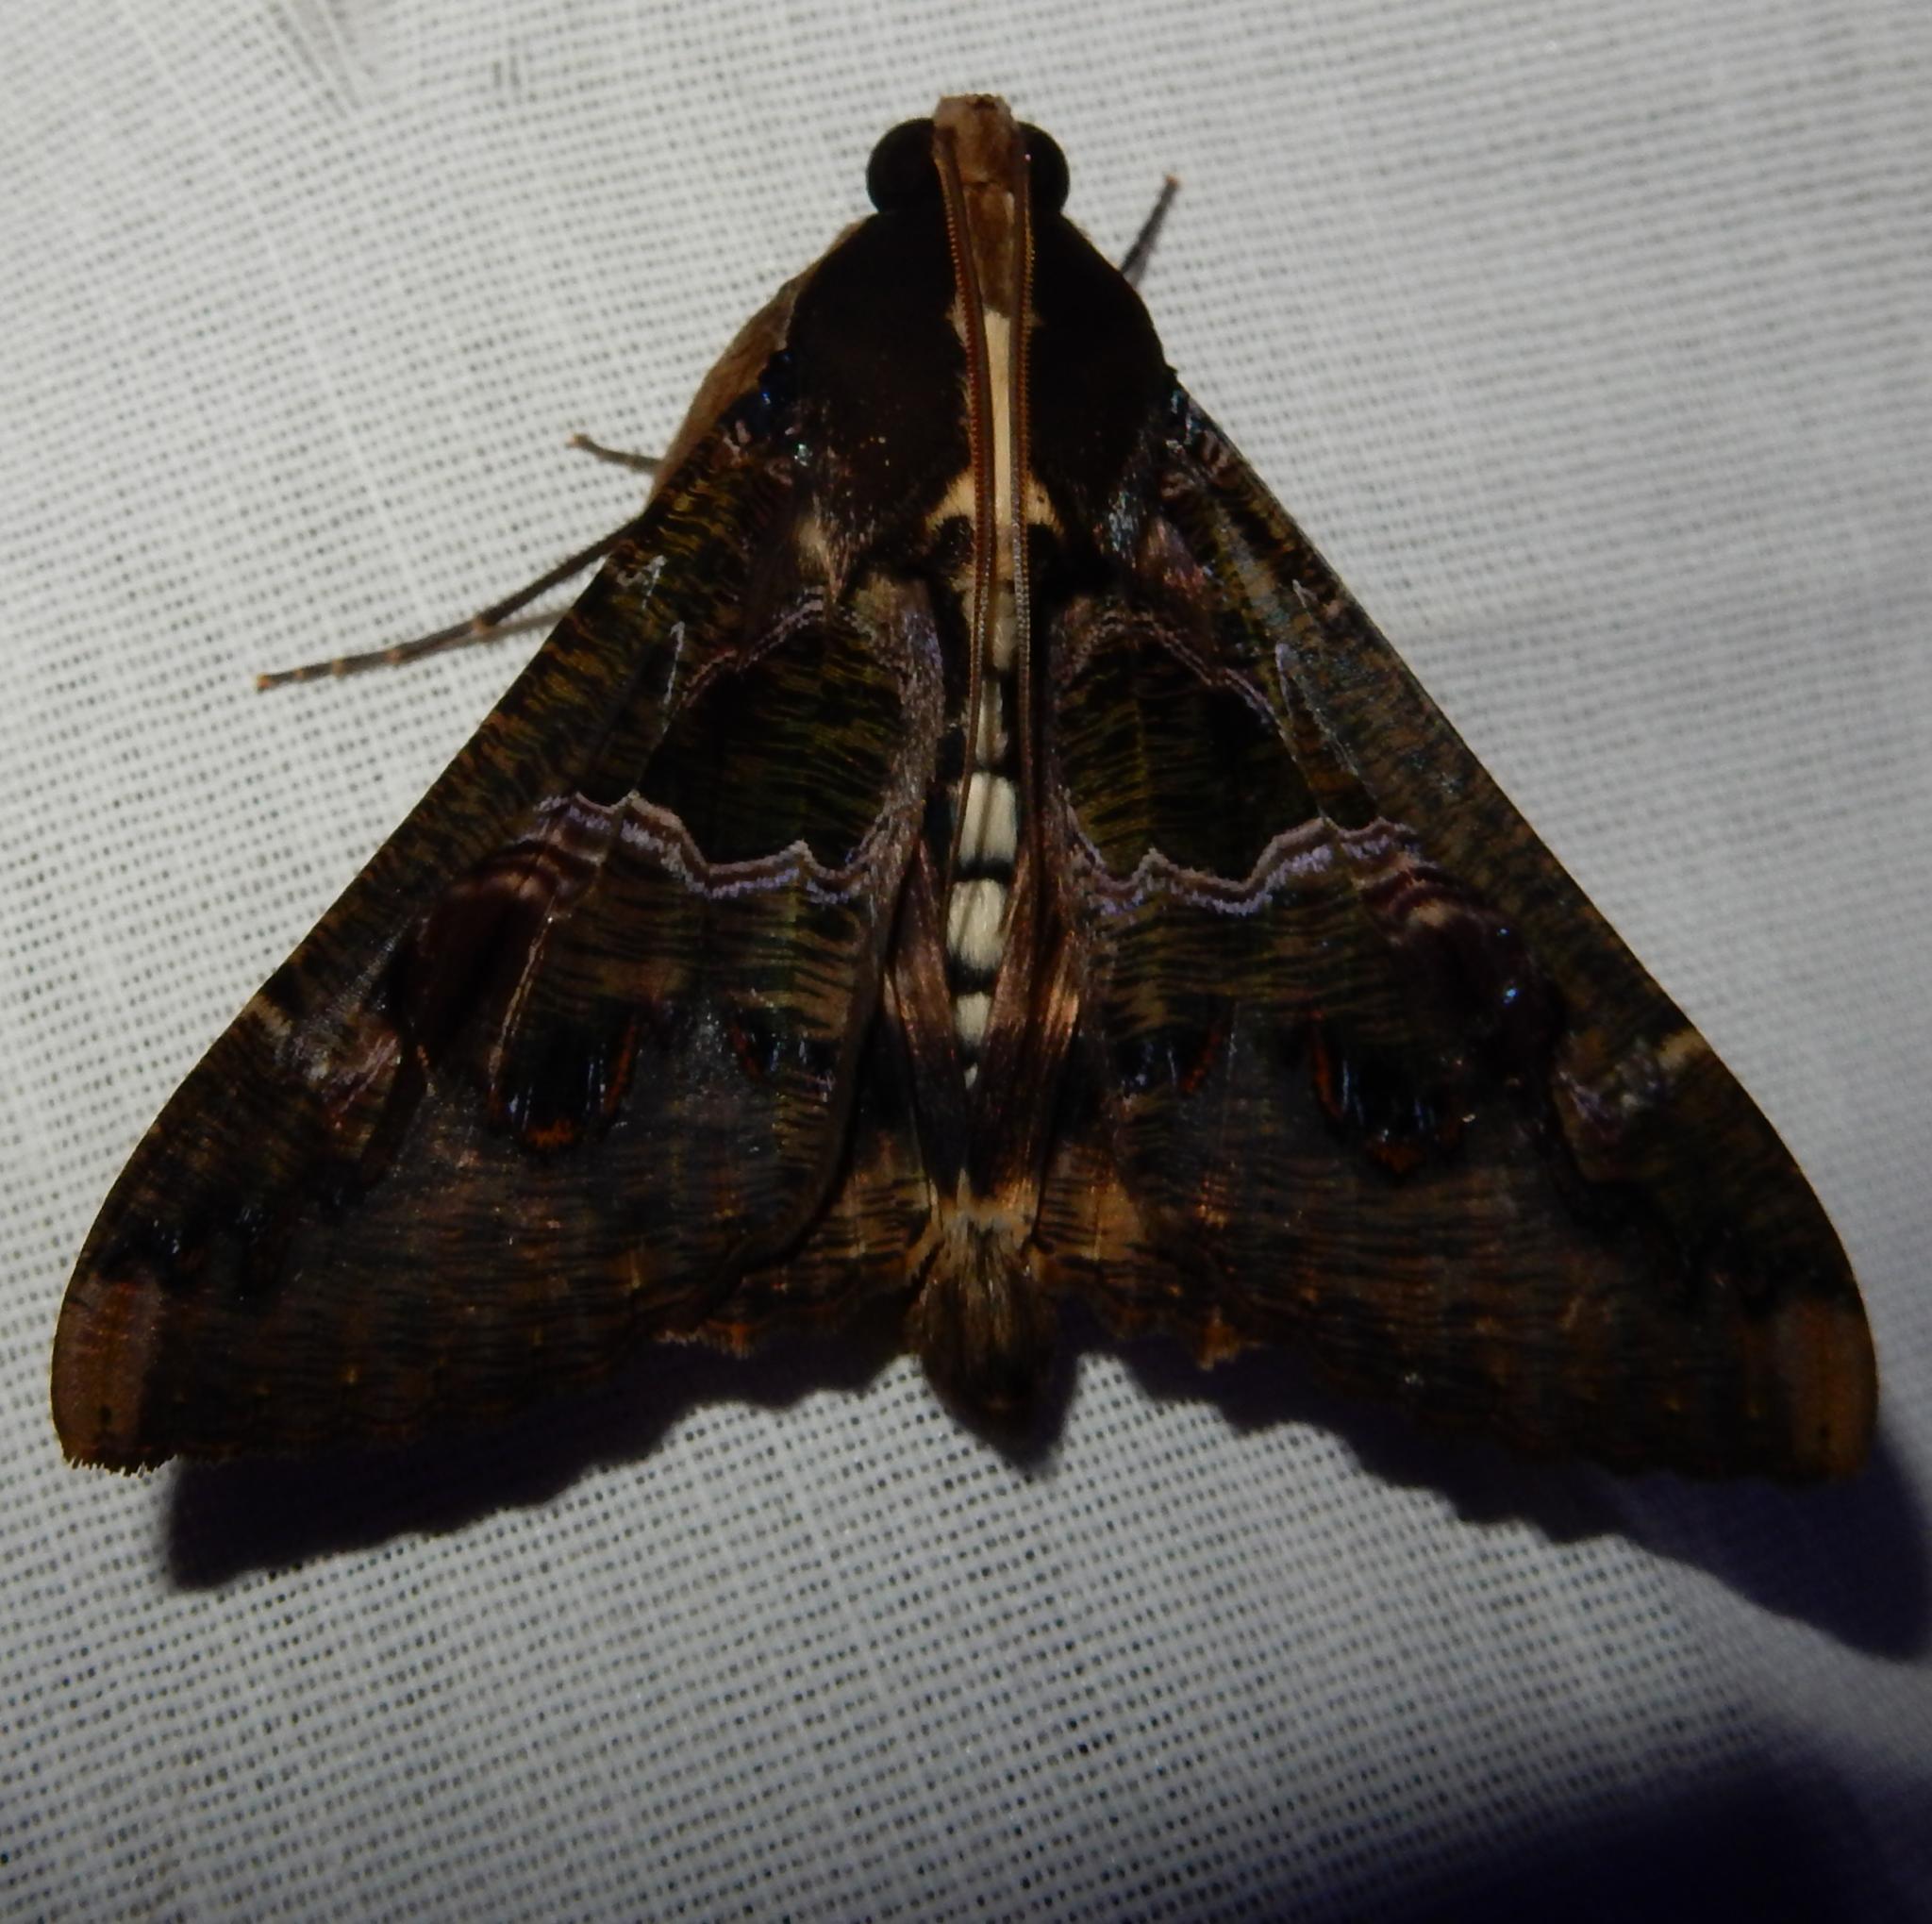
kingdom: Animalia
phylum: Arthropoda
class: Insecta
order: Lepidoptera
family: Erebidae
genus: Sphingomorpha
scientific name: Sphingomorpha chlorea
